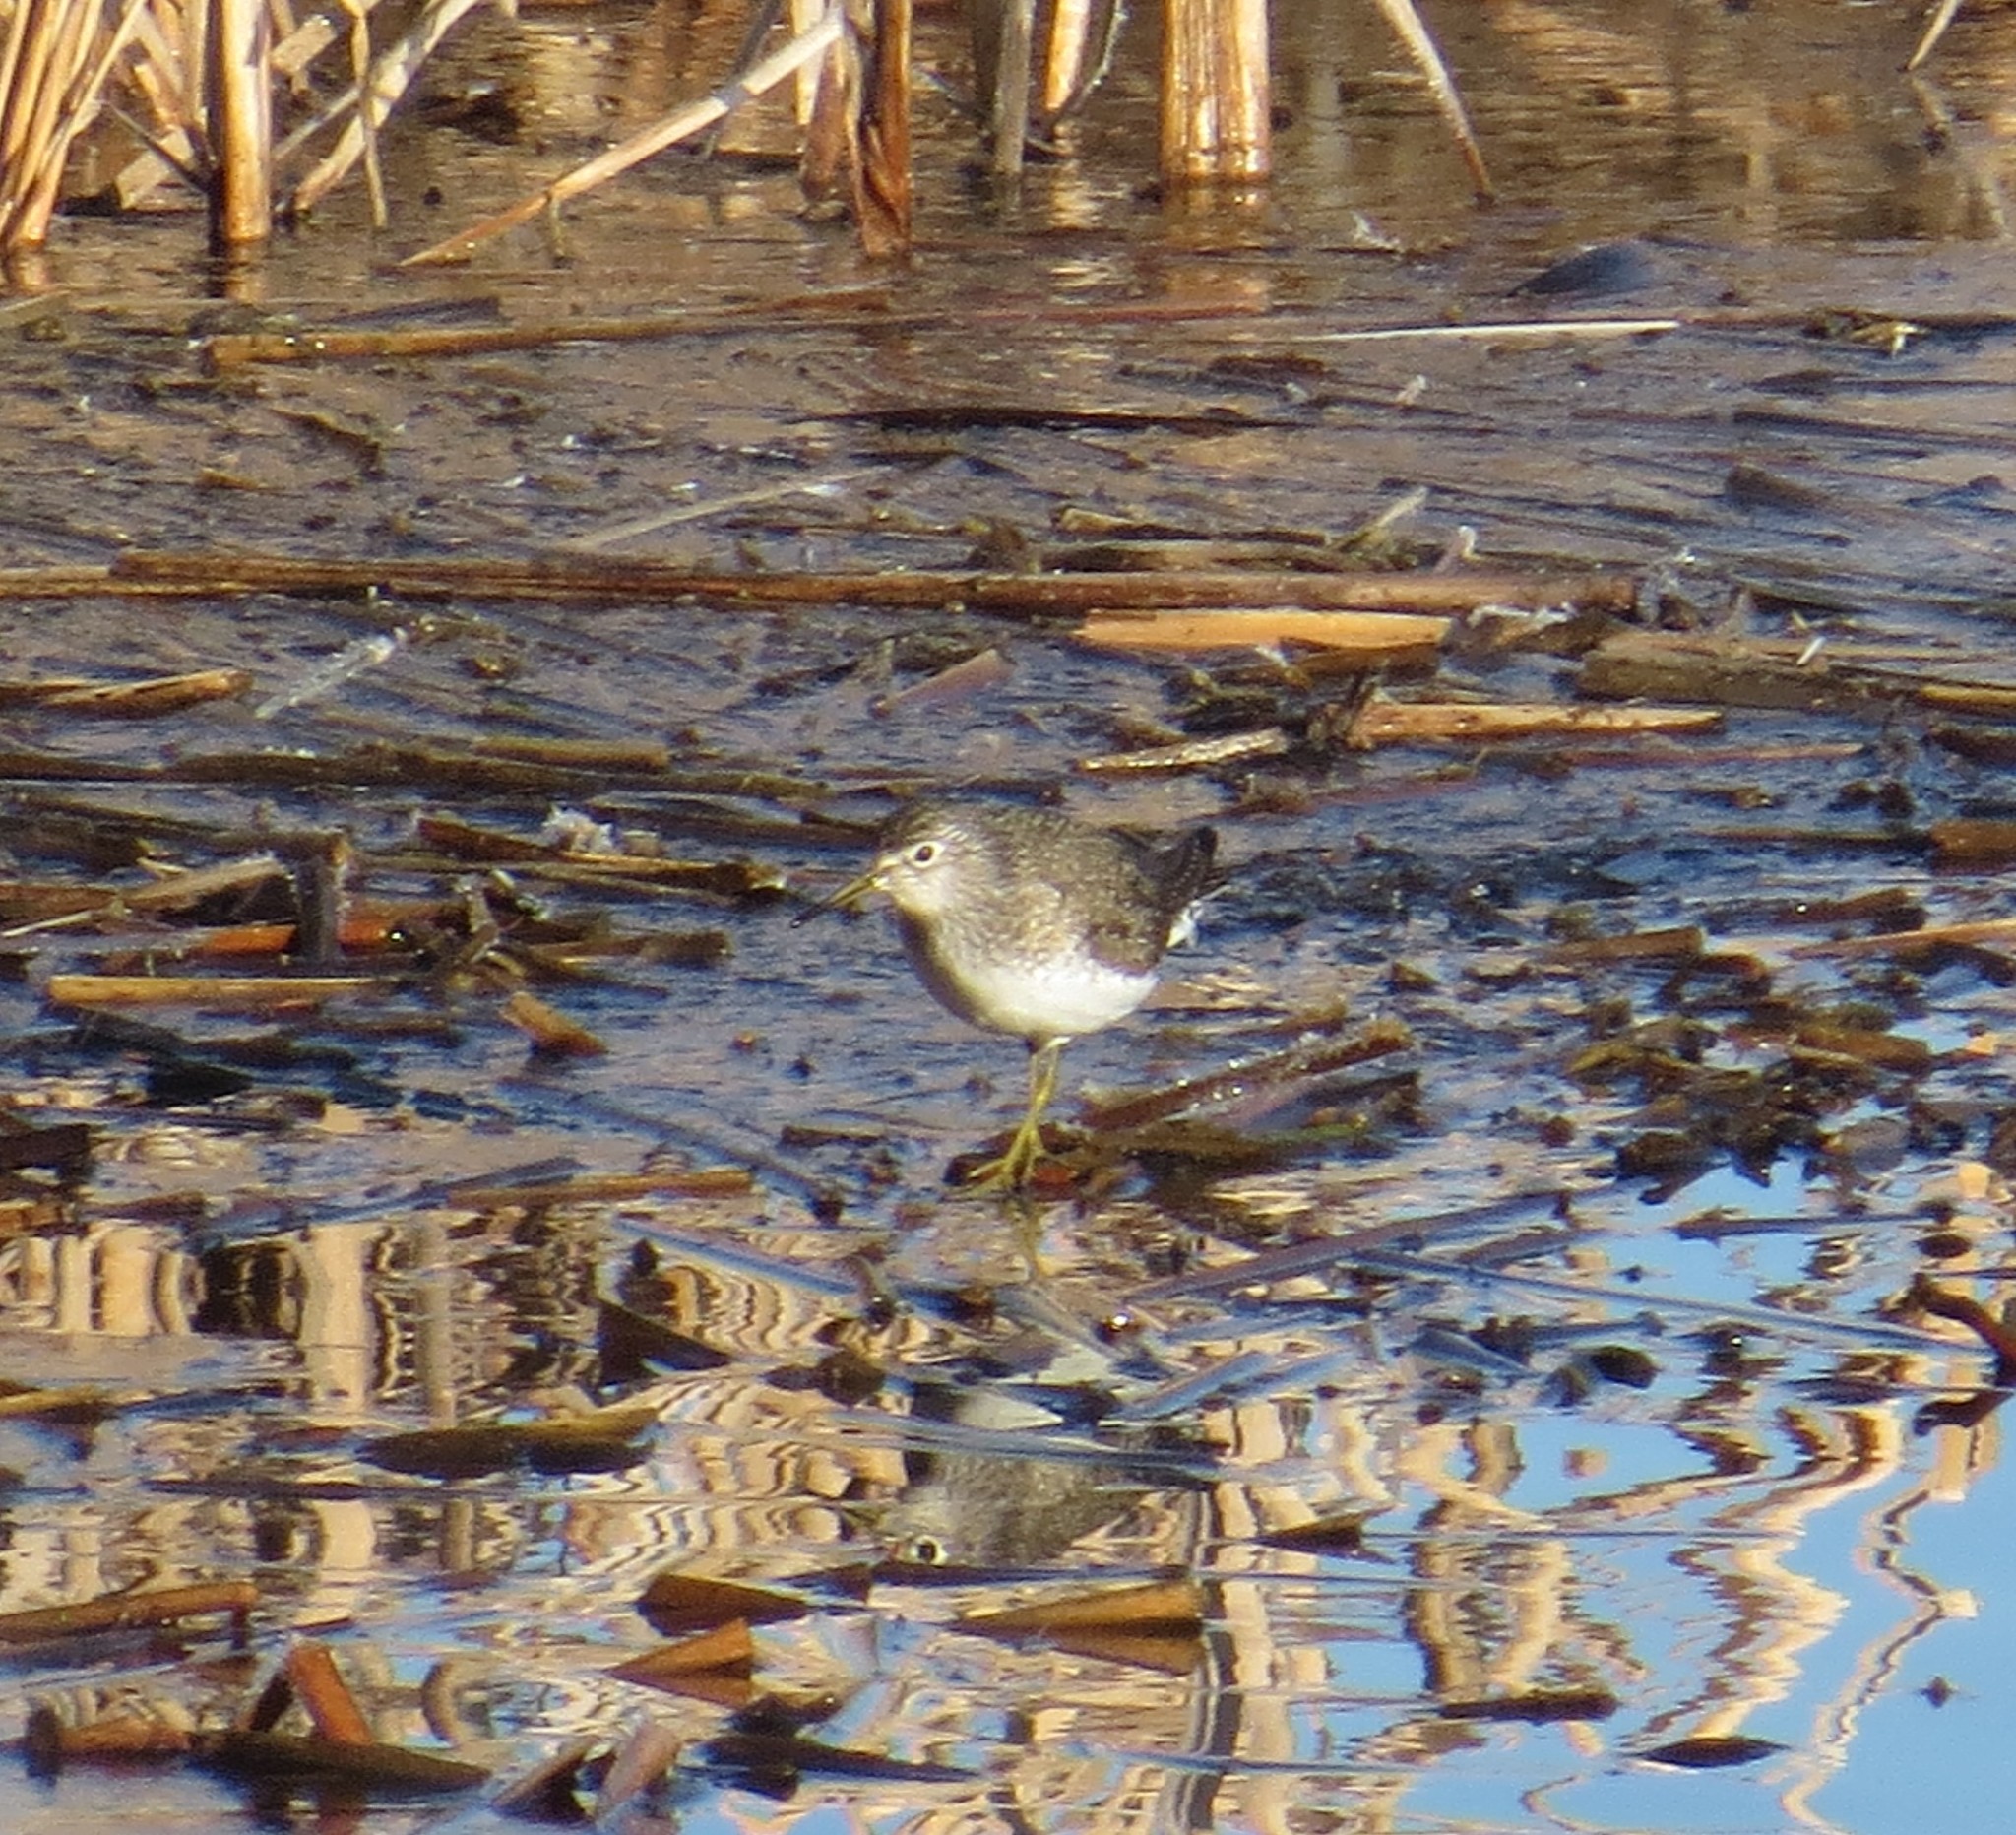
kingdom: Animalia
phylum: Chordata
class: Aves
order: Charadriiformes
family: Scolopacidae
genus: Tringa
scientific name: Tringa solitaria
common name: Solitary sandpiper
